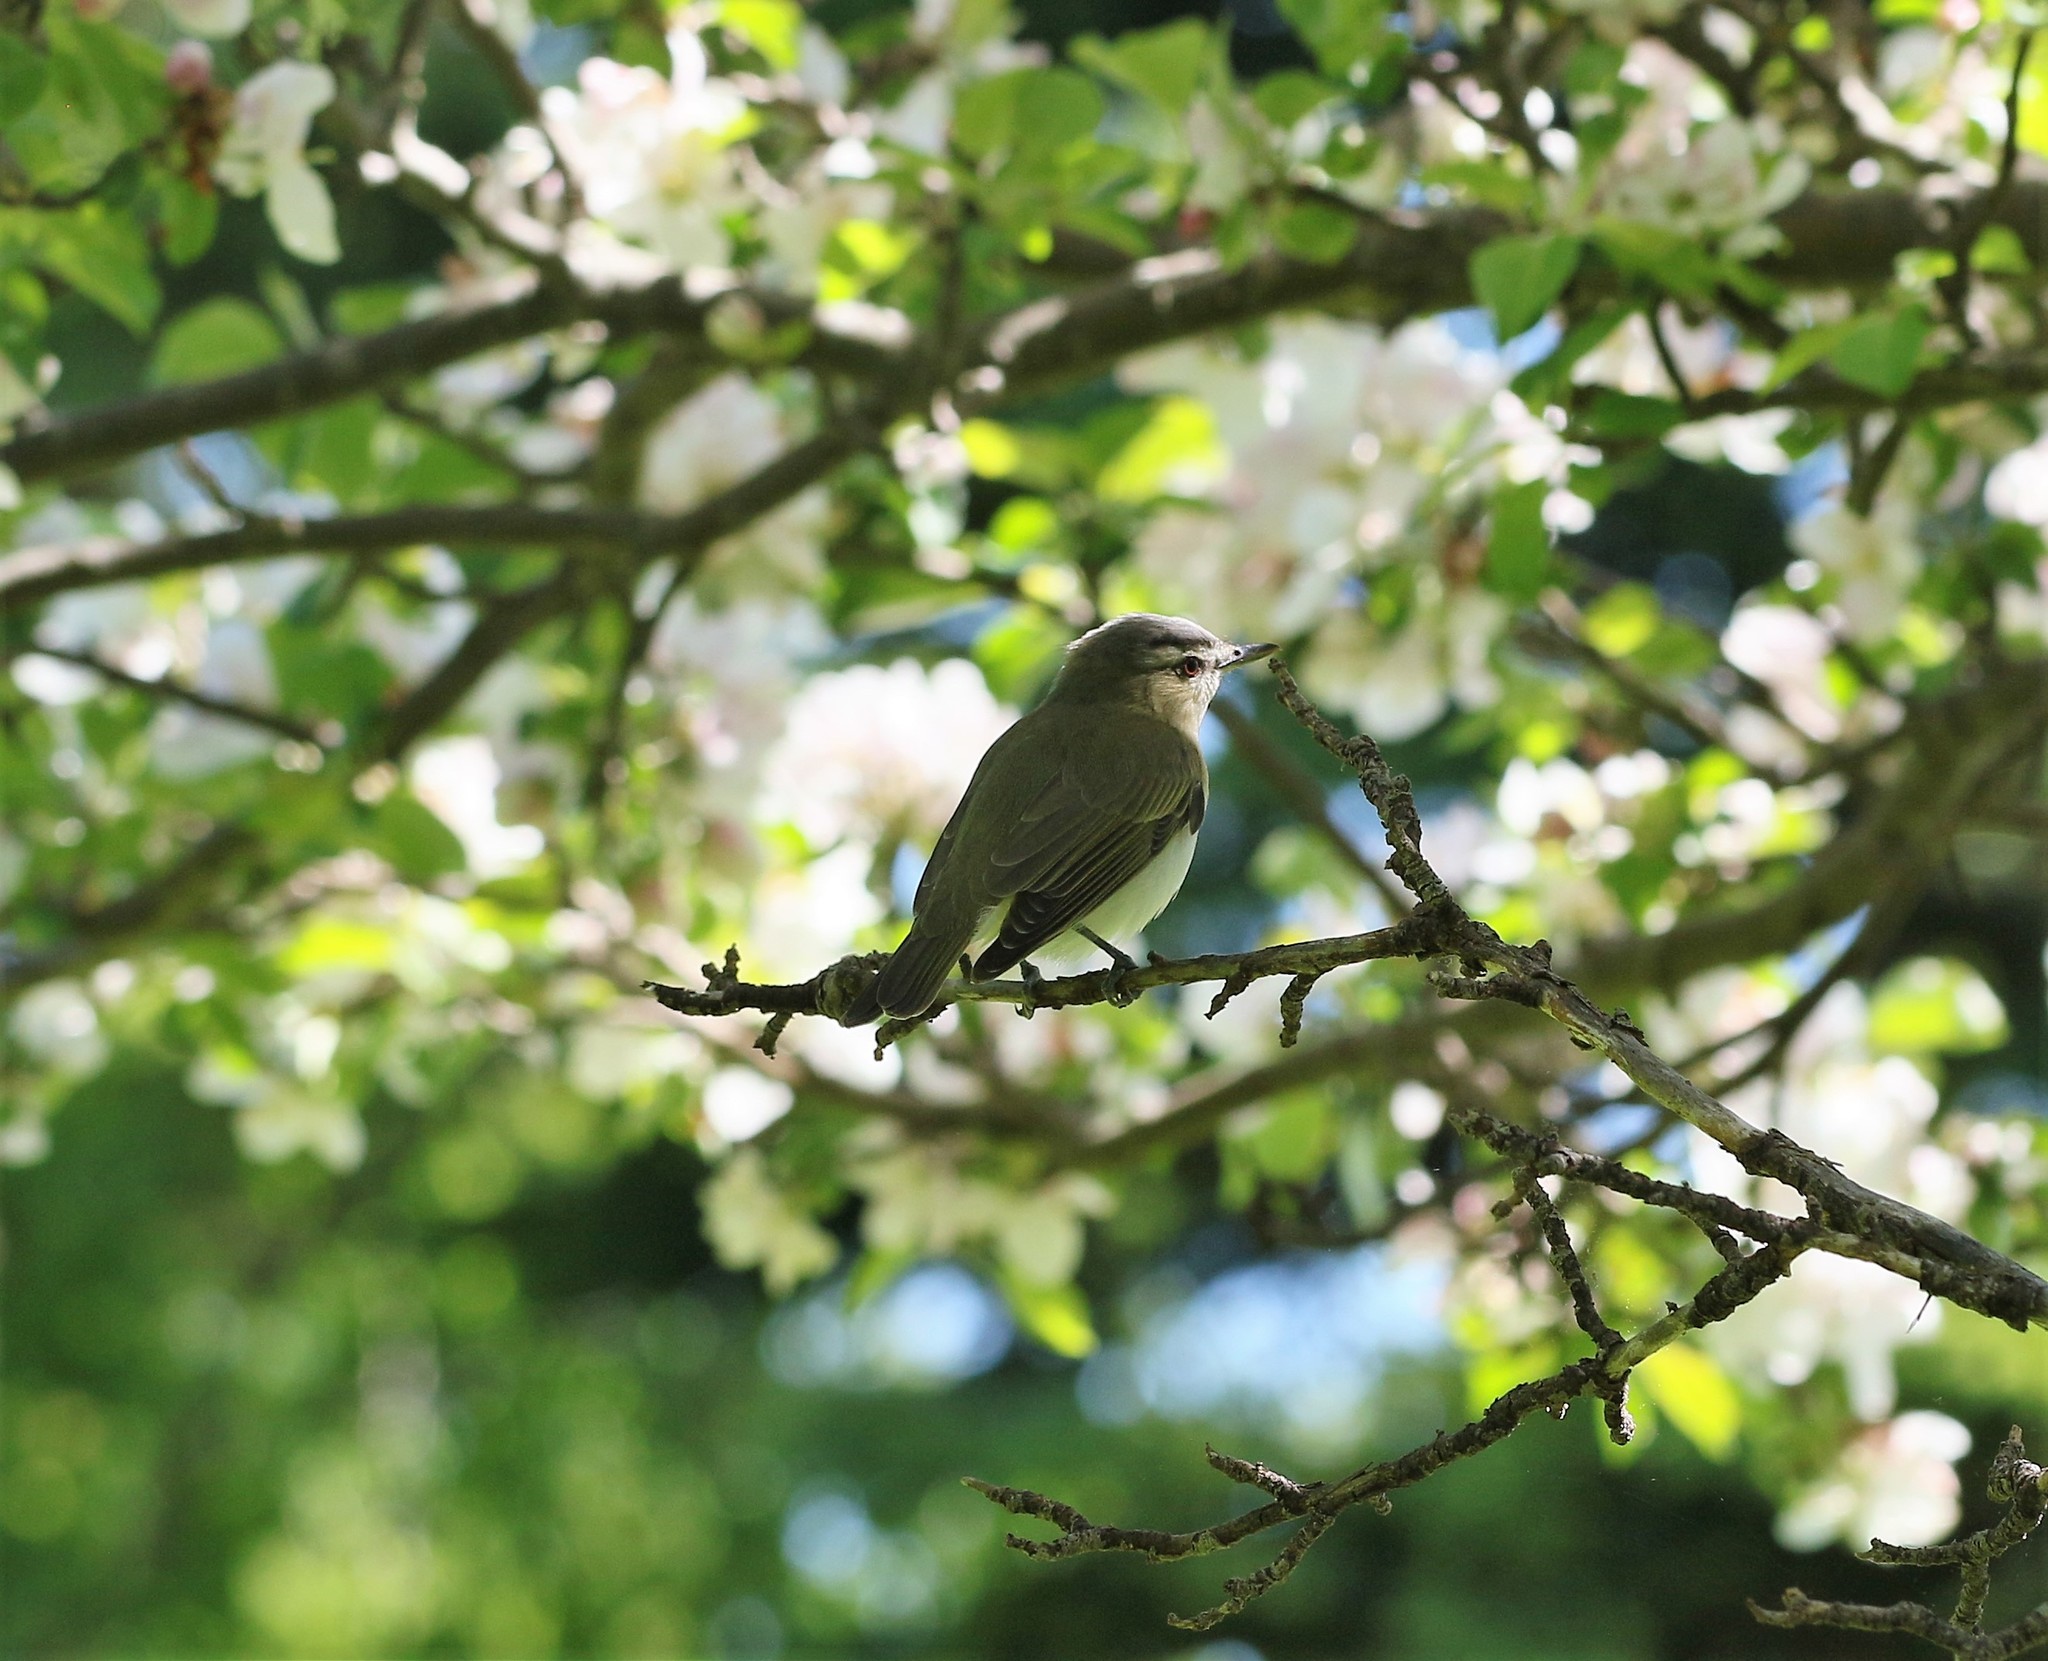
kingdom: Animalia
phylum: Chordata
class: Aves
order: Passeriformes
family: Vireonidae
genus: Vireo
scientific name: Vireo olivaceus
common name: Red-eyed vireo
